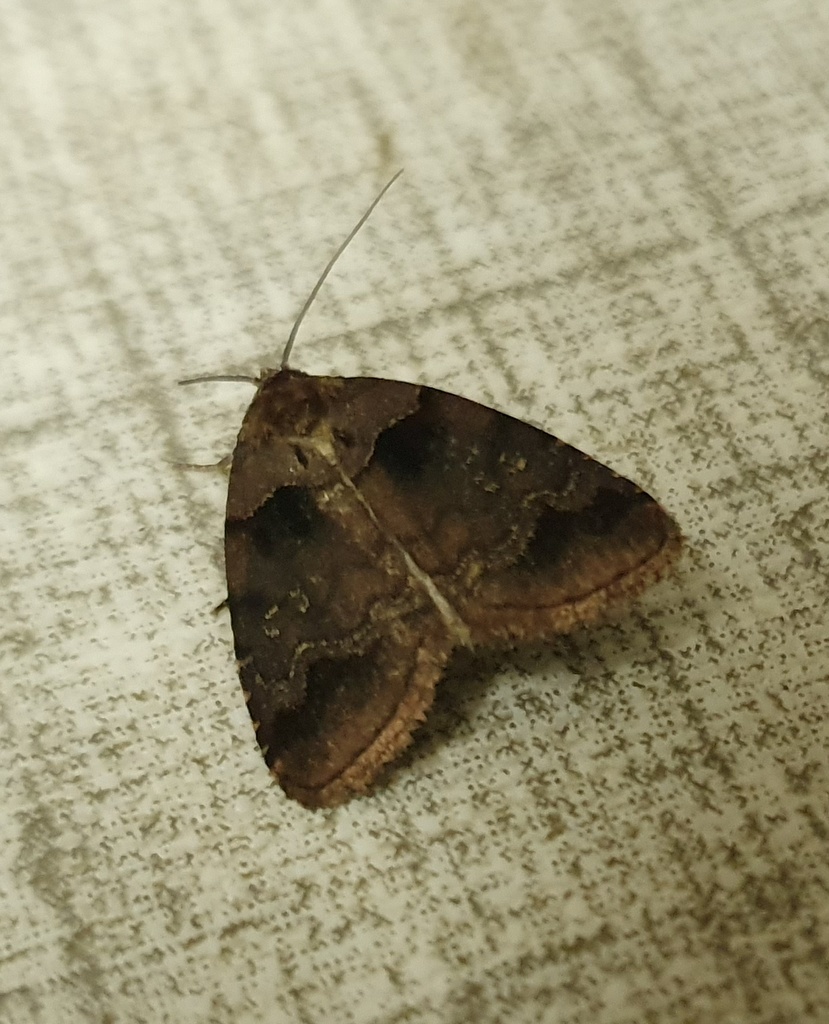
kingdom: Animalia
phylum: Arthropoda
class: Insecta
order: Lepidoptera
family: Noctuidae
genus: Cretonia
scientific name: Cretonia ethiopica
